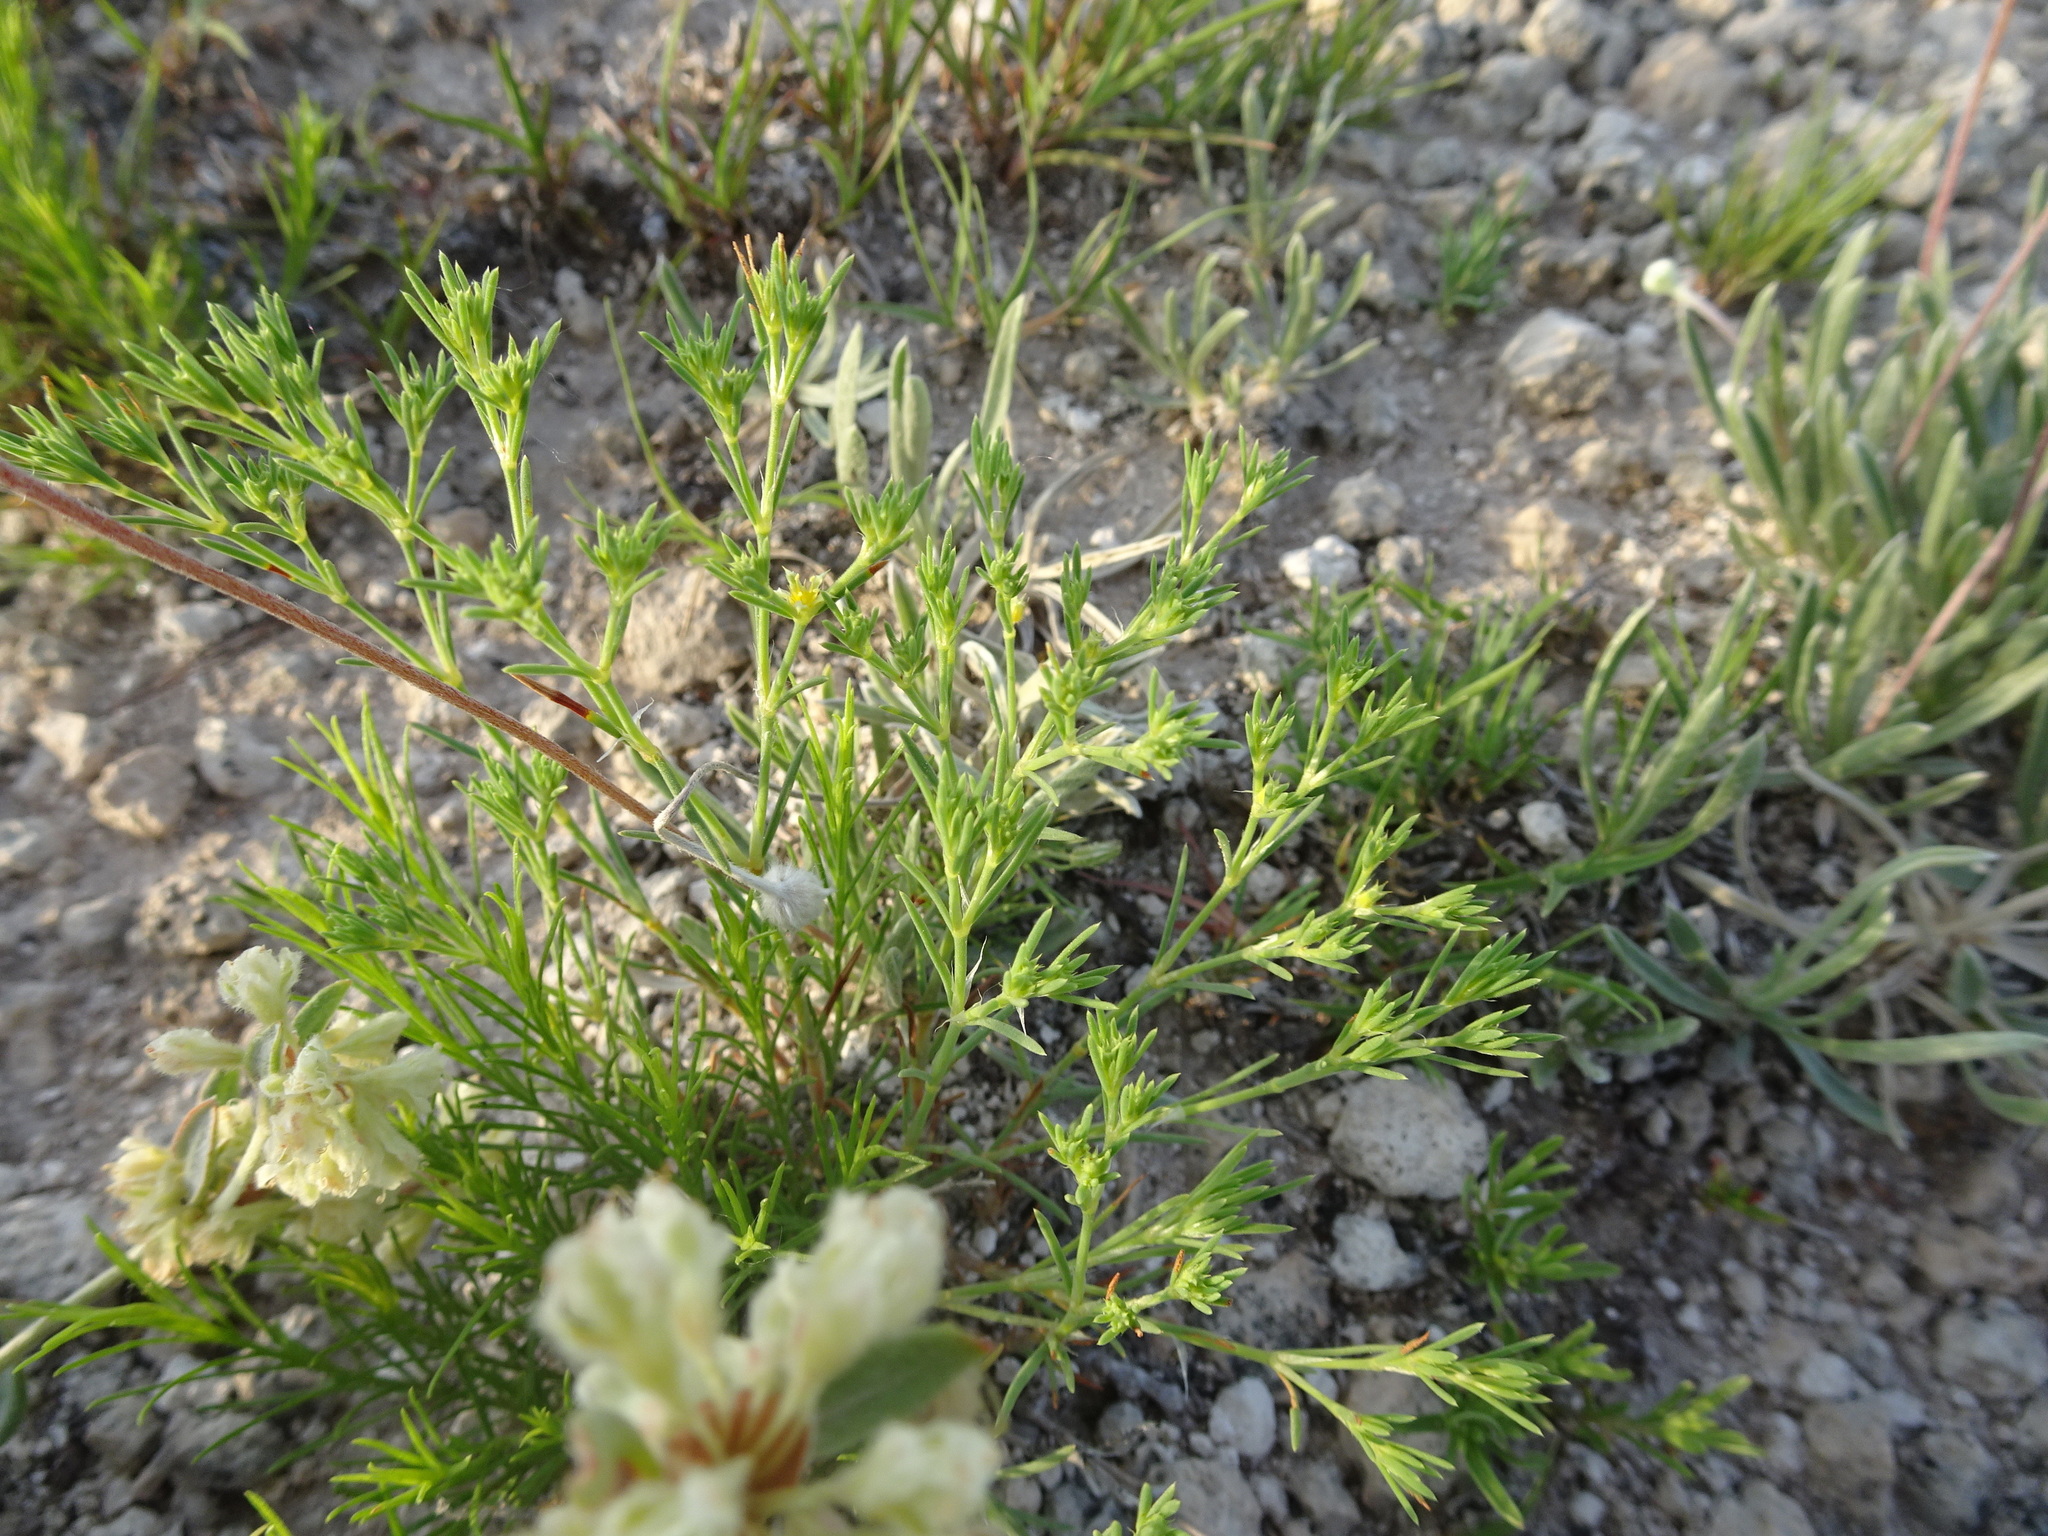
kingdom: Plantae
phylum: Tracheophyta
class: Magnoliopsida
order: Caryophyllales
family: Caryophyllaceae
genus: Paronychia
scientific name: Paronychia jamesii
